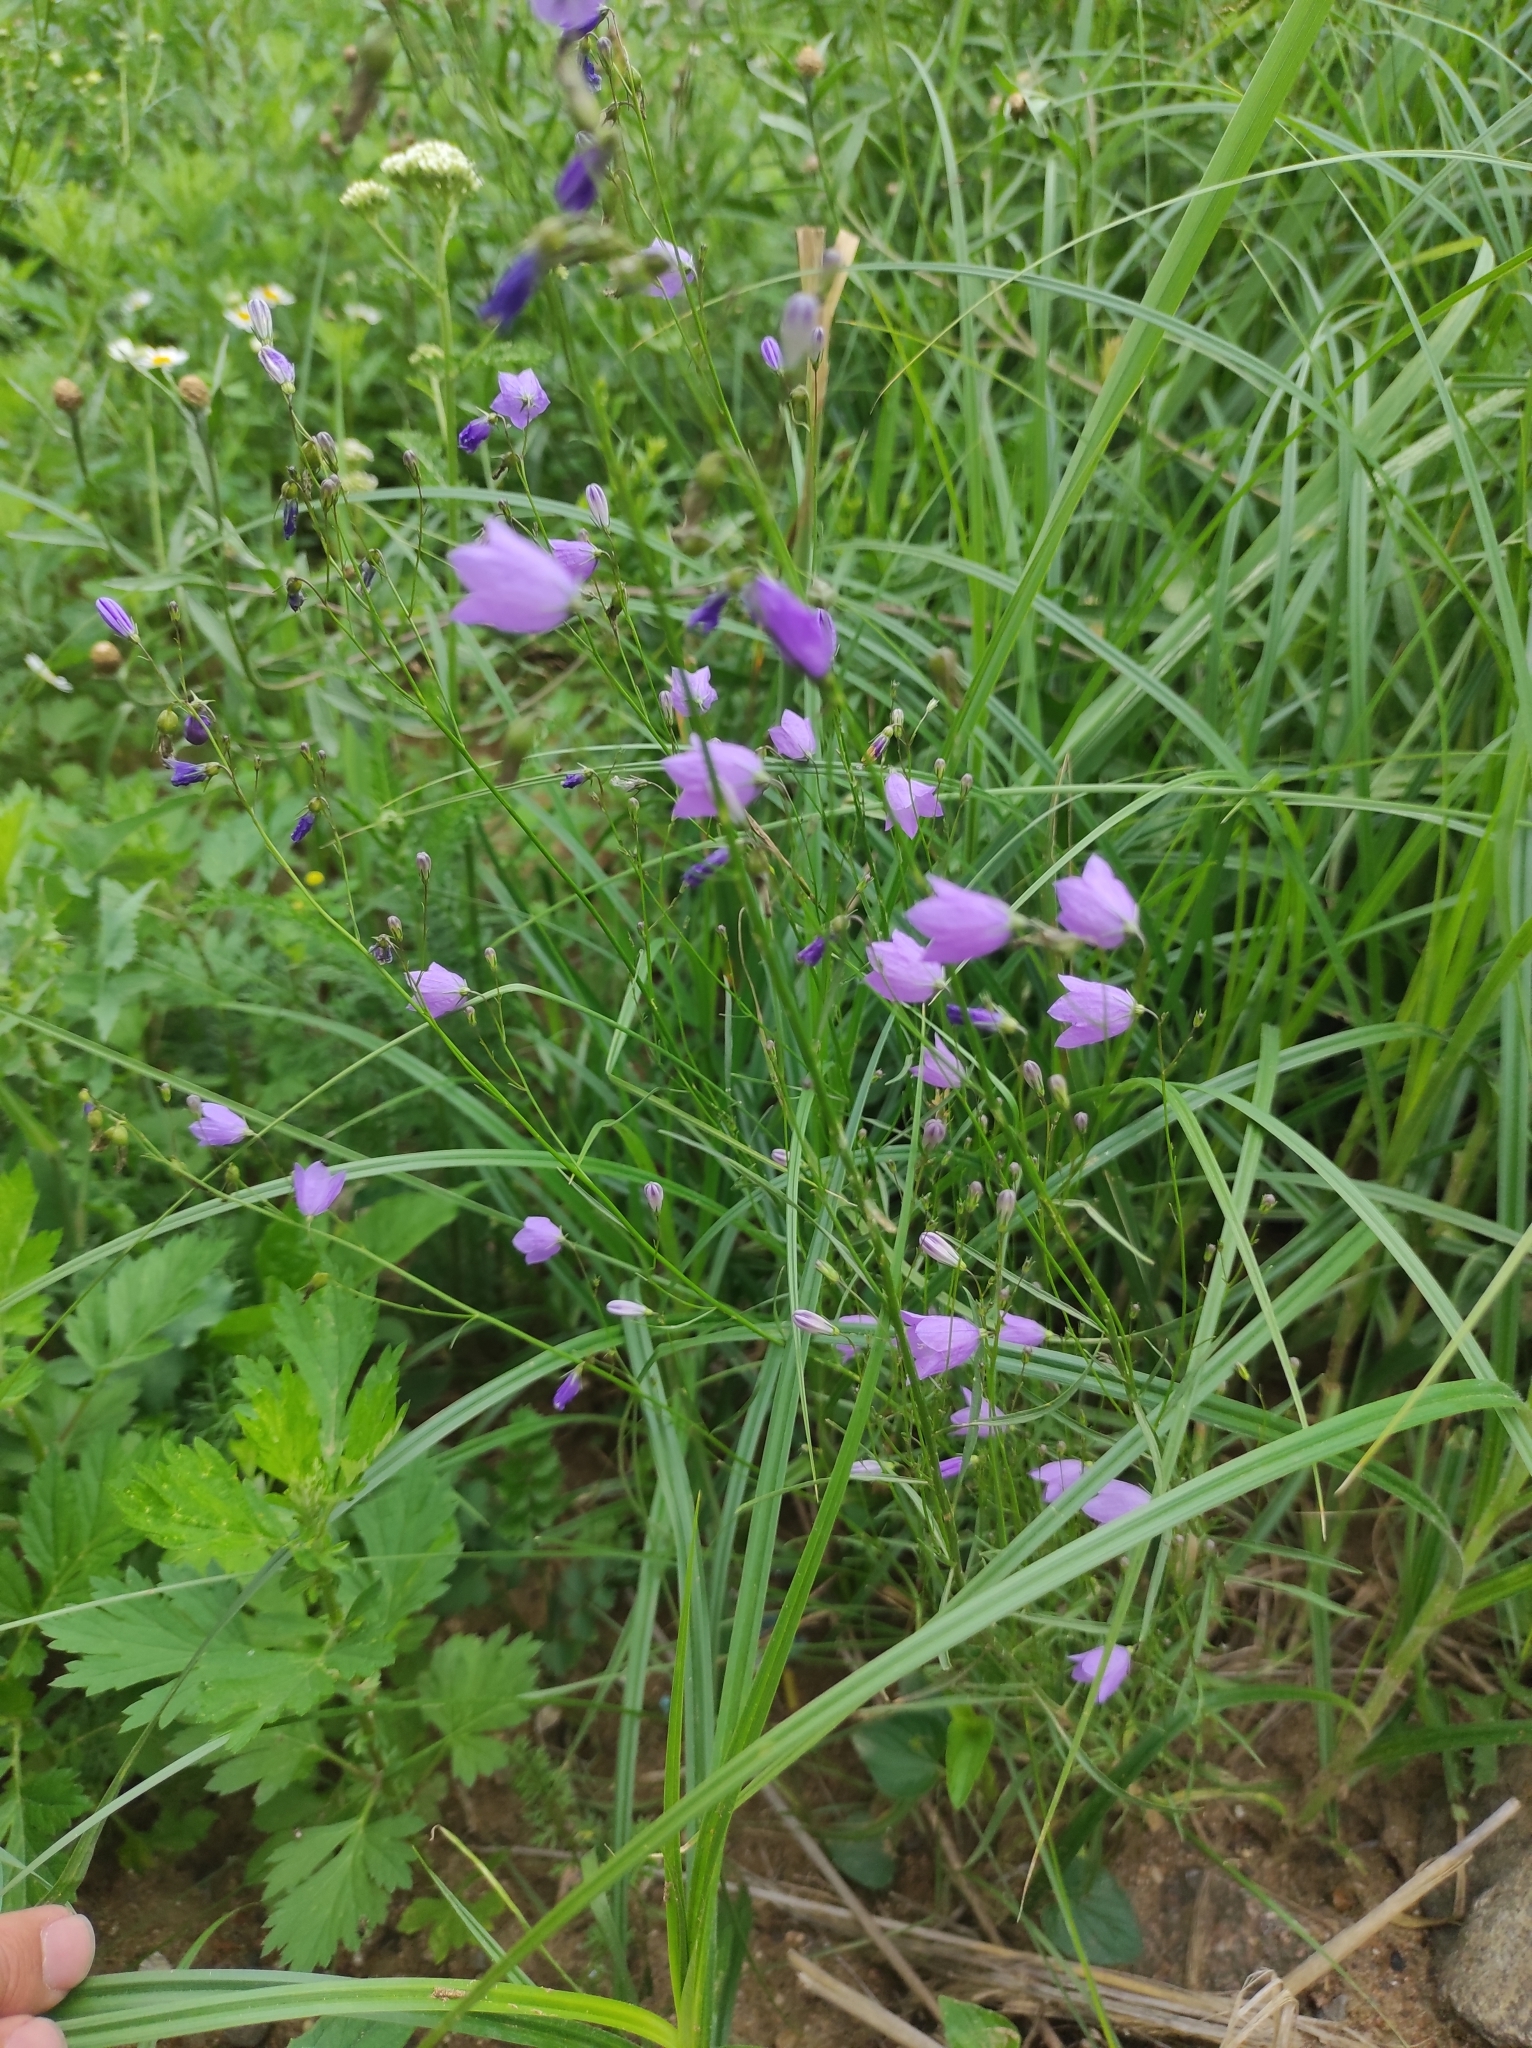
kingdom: Plantae
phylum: Tracheophyta
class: Magnoliopsida
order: Asterales
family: Campanulaceae
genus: Campanula
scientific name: Campanula rotundifolia
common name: Harebell
